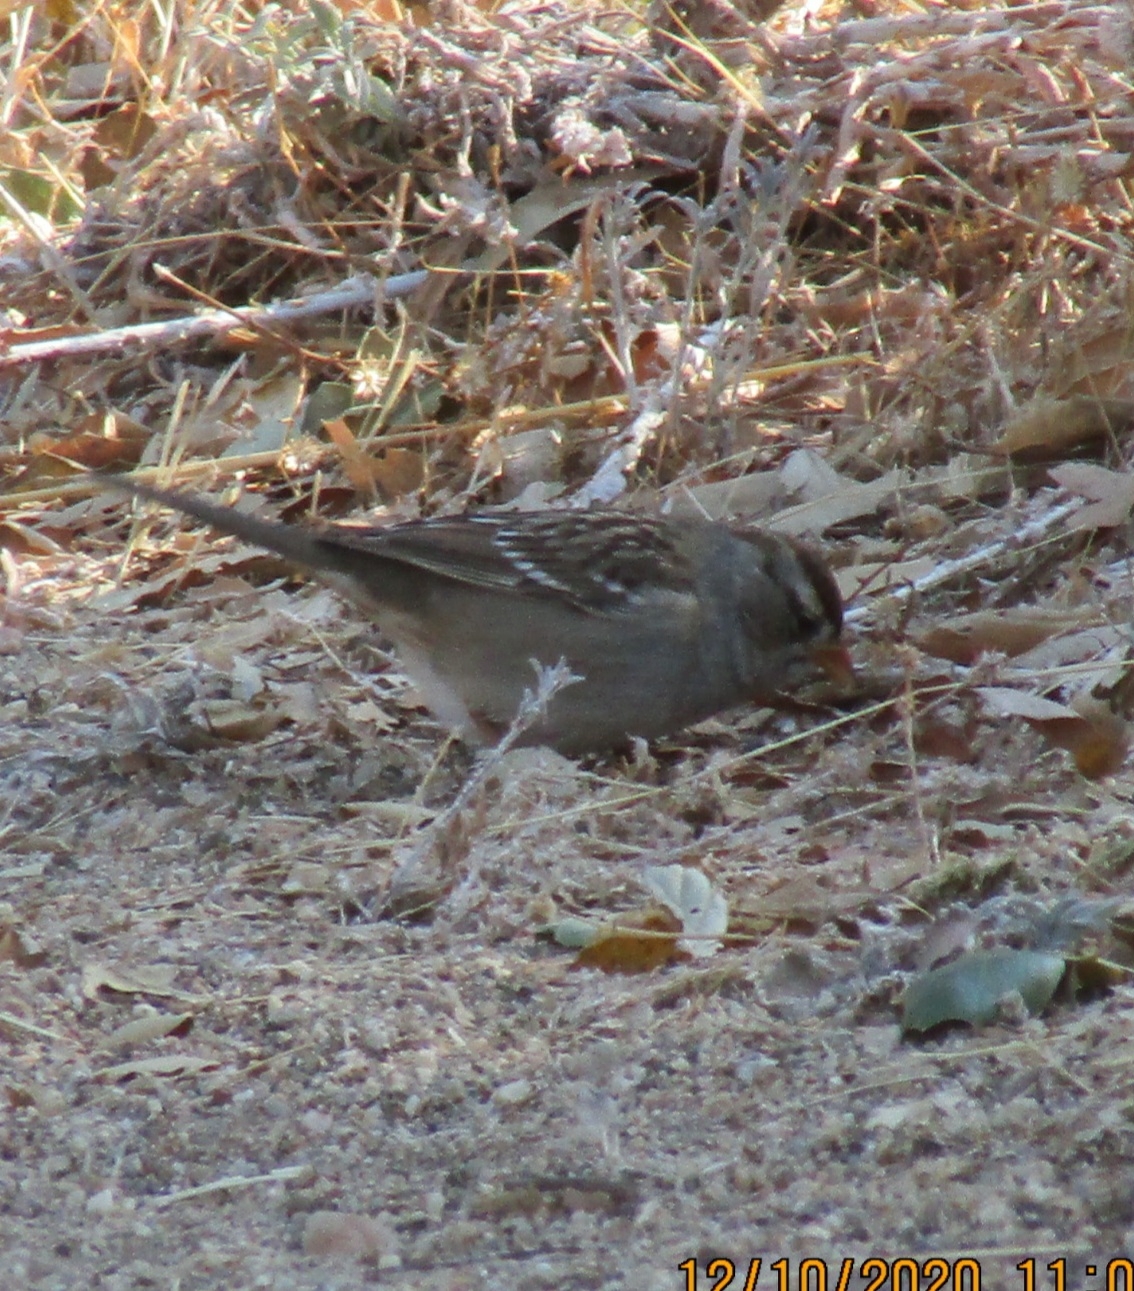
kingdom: Animalia
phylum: Chordata
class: Aves
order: Passeriformes
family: Passerellidae
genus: Zonotrichia
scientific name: Zonotrichia leucophrys
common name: White-crowned sparrow
